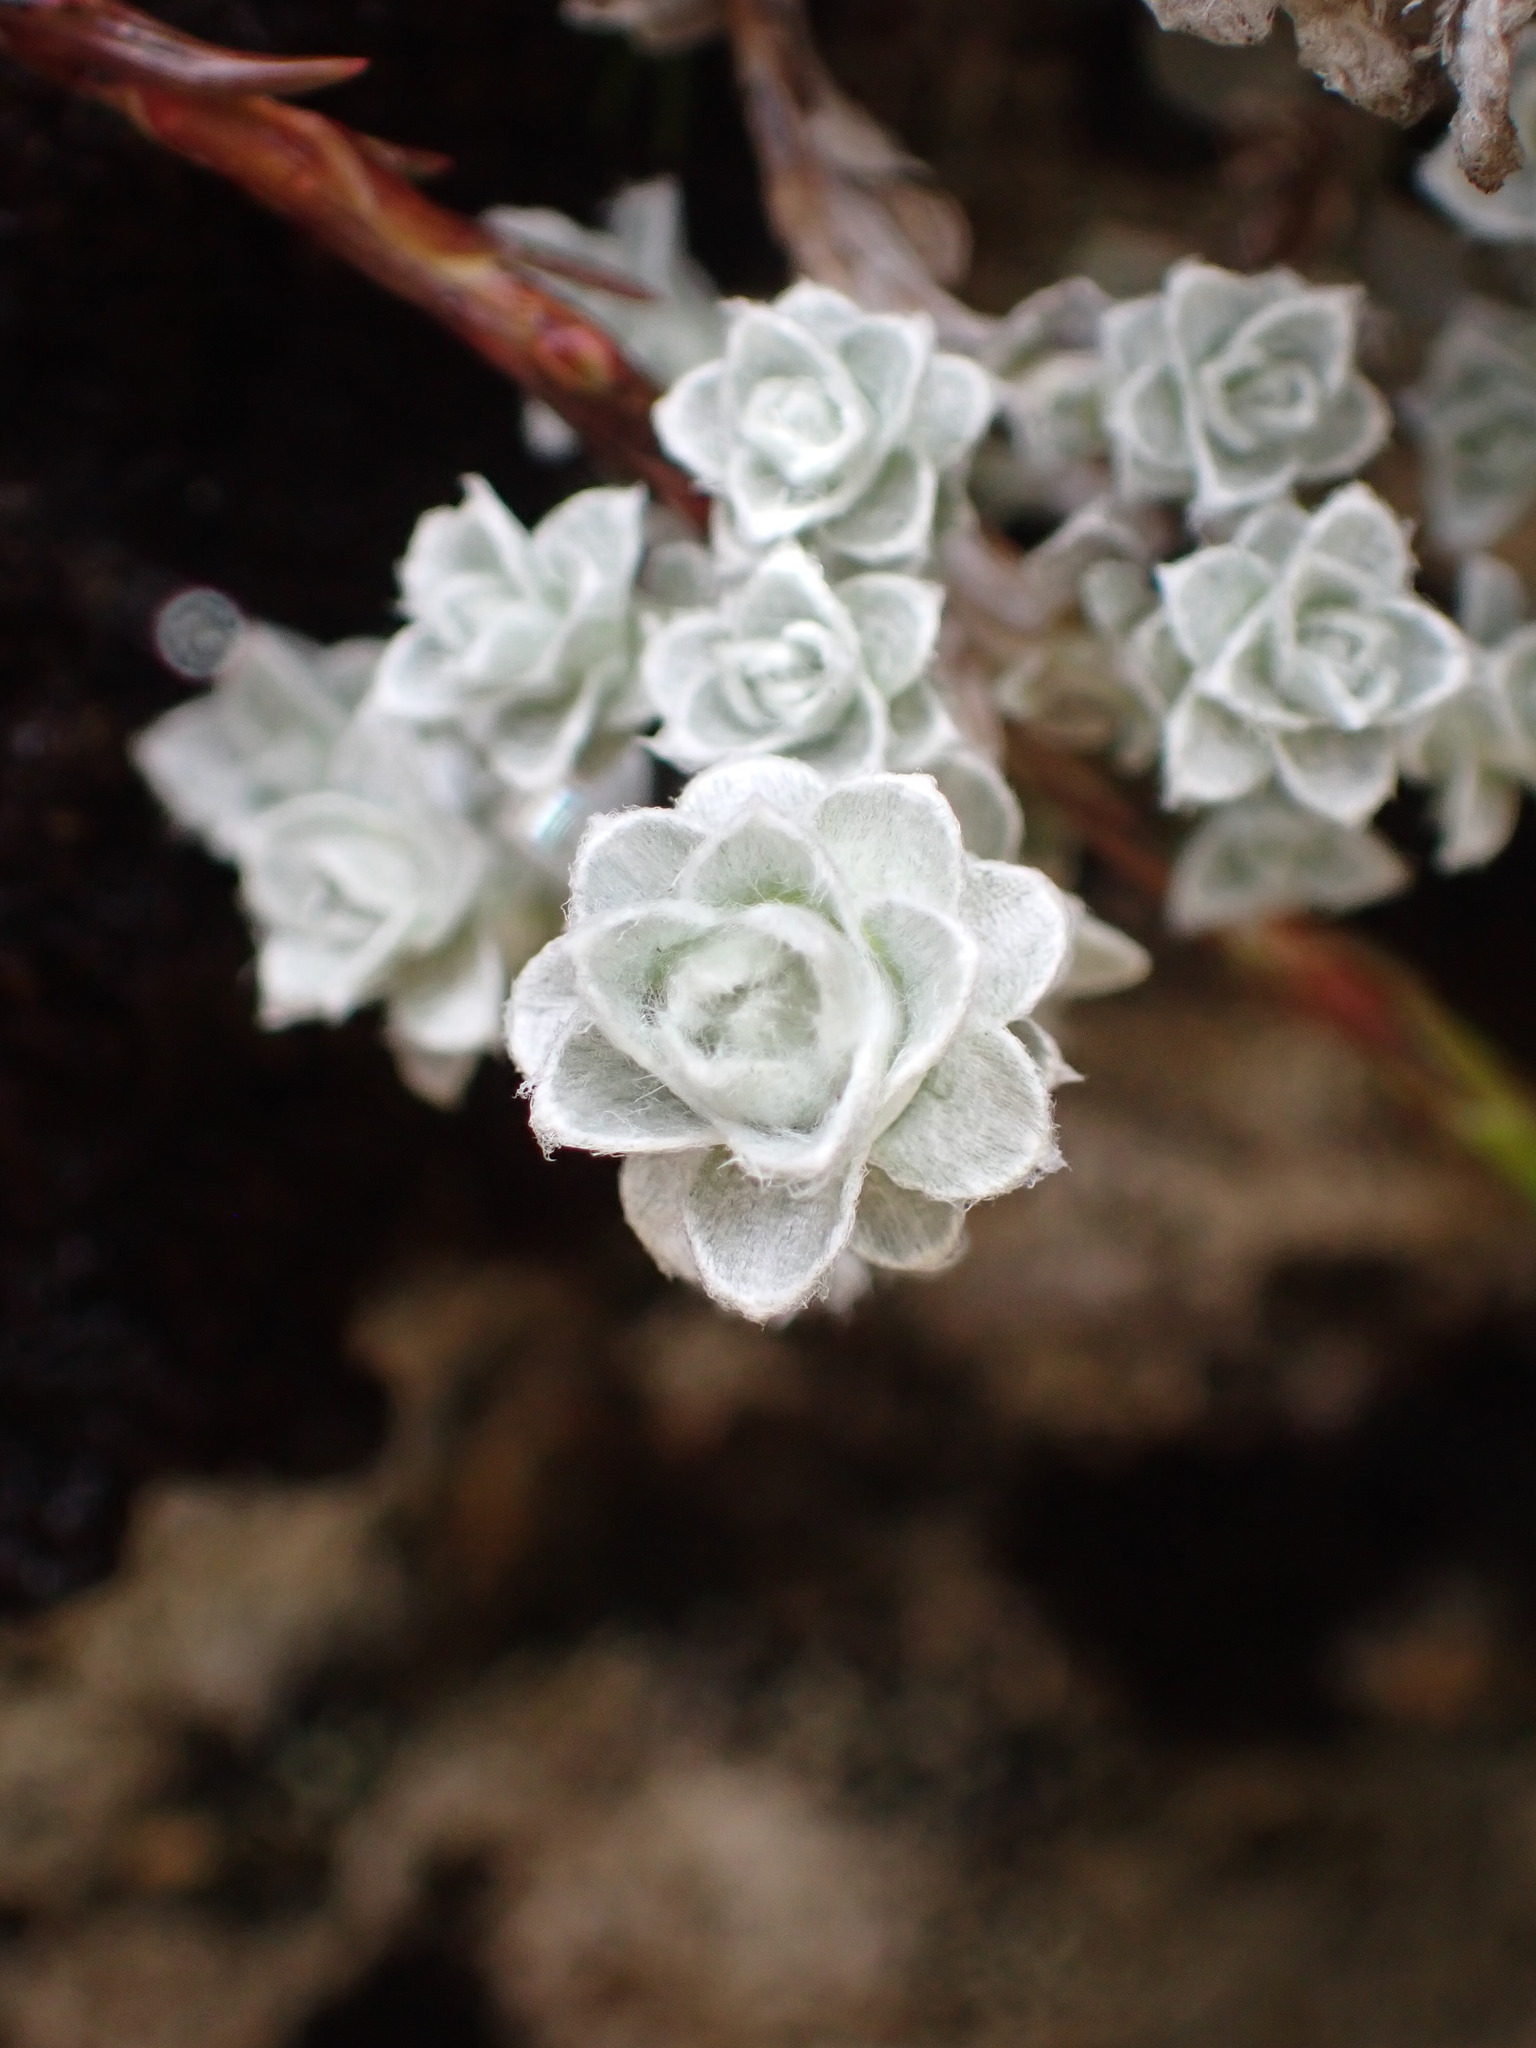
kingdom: Plantae
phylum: Tracheophyta
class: Magnoliopsida
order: Asterales
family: Asteraceae
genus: Leucogenes
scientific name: Leucogenes grandiceps
